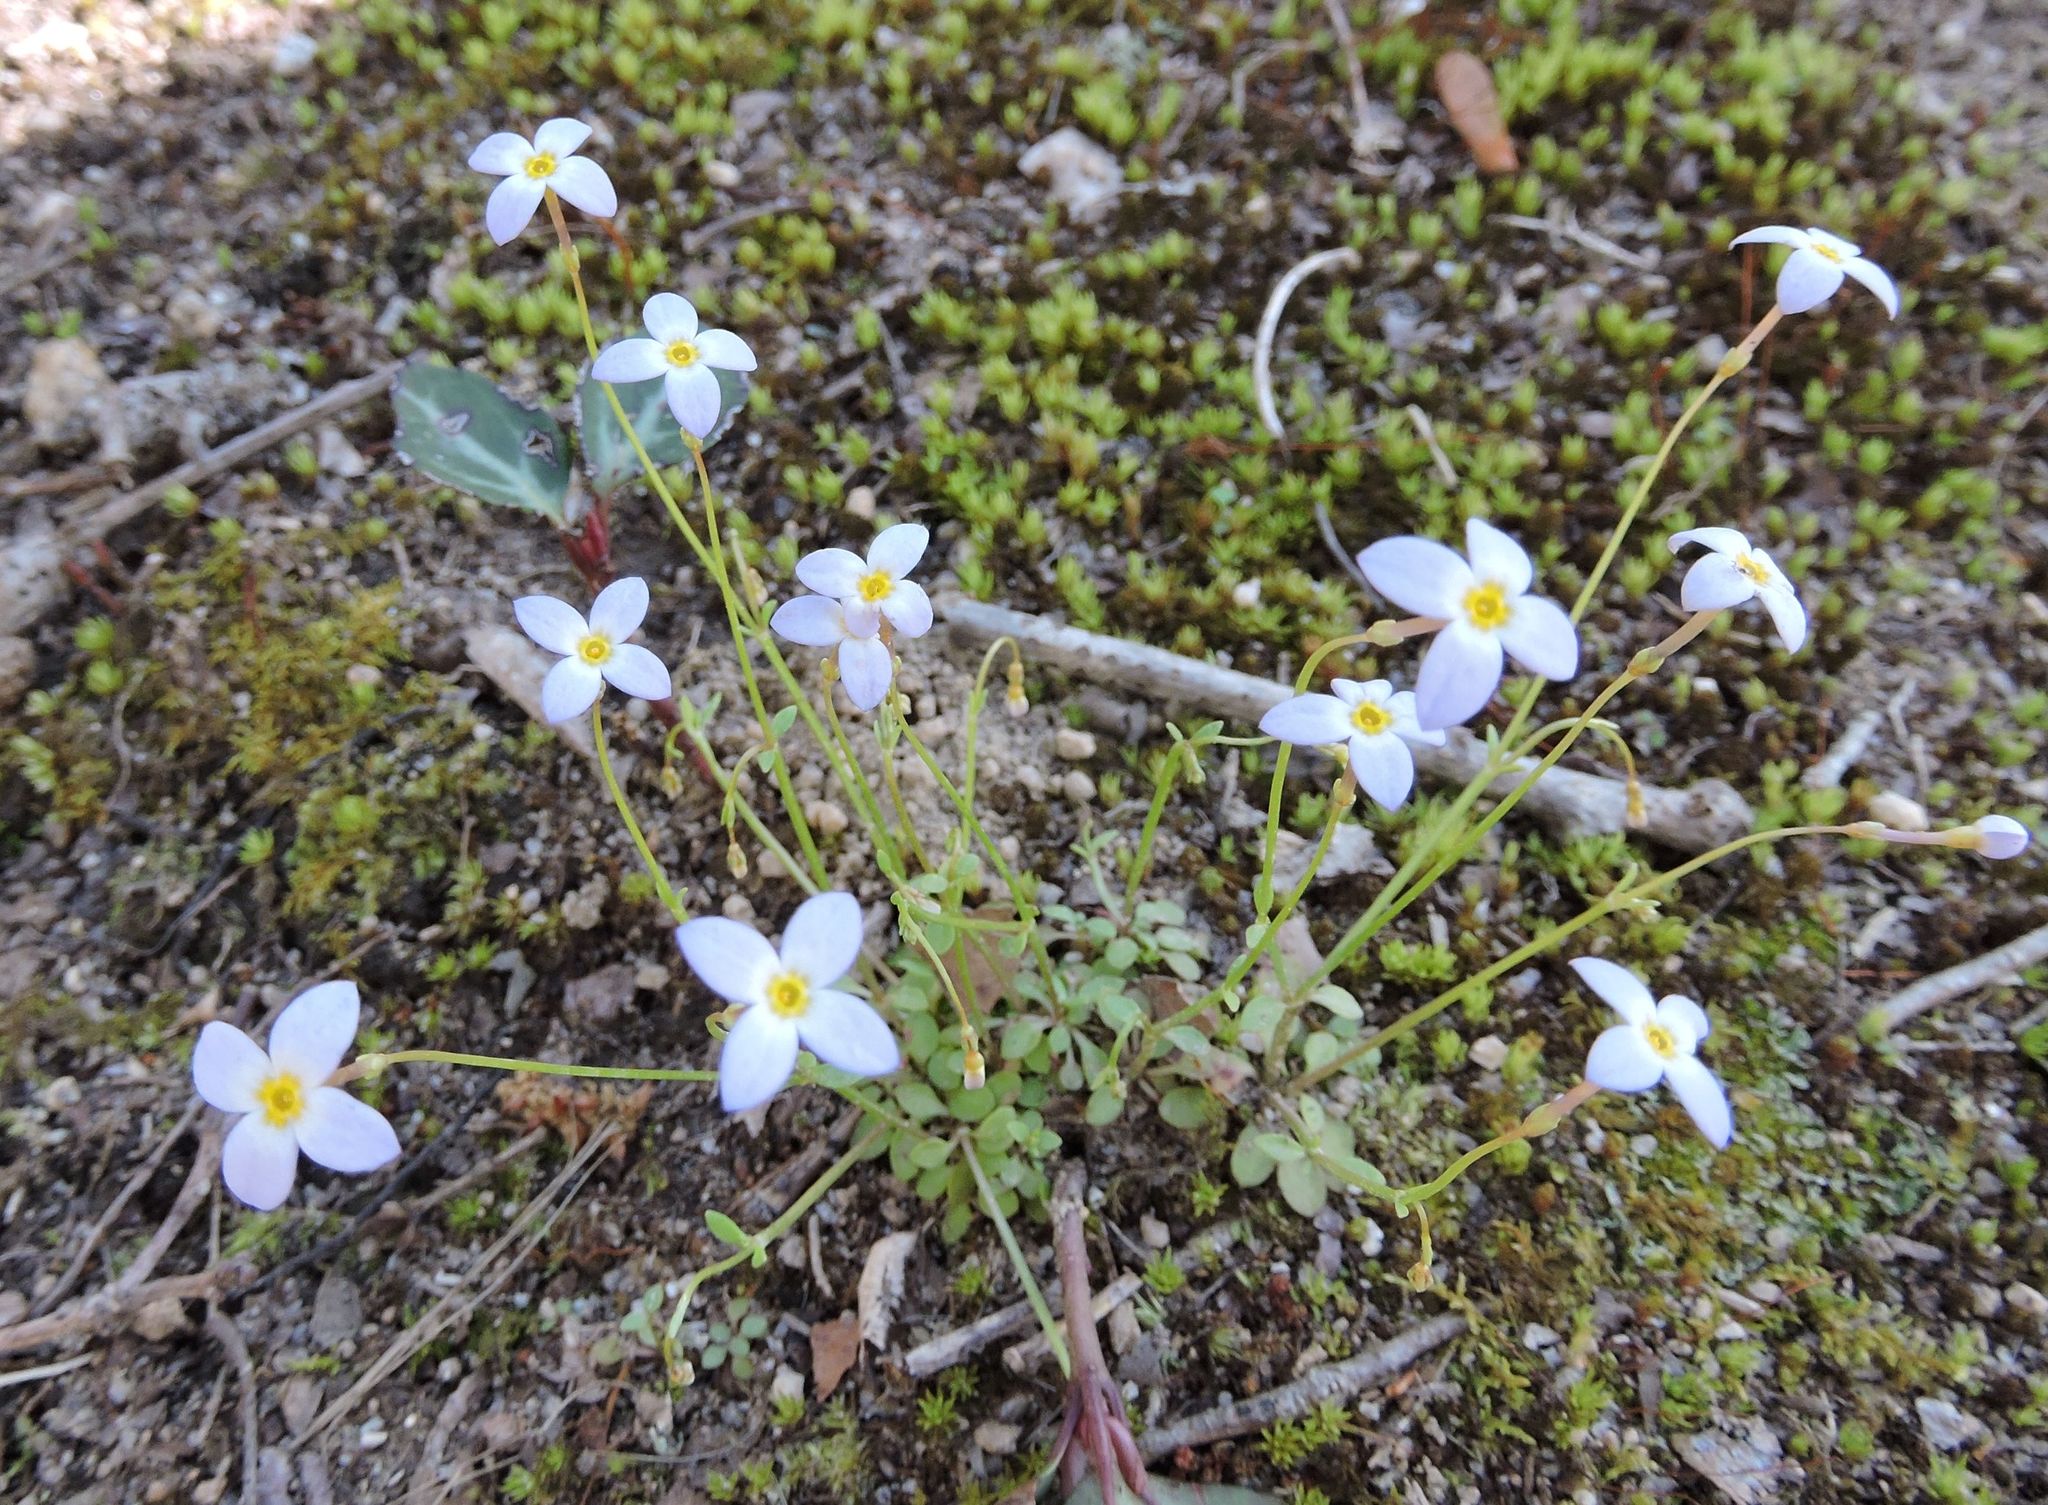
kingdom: Plantae
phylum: Tracheophyta
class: Magnoliopsida
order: Gentianales
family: Rubiaceae
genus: Houstonia
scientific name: Houstonia caerulea
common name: Bluets
